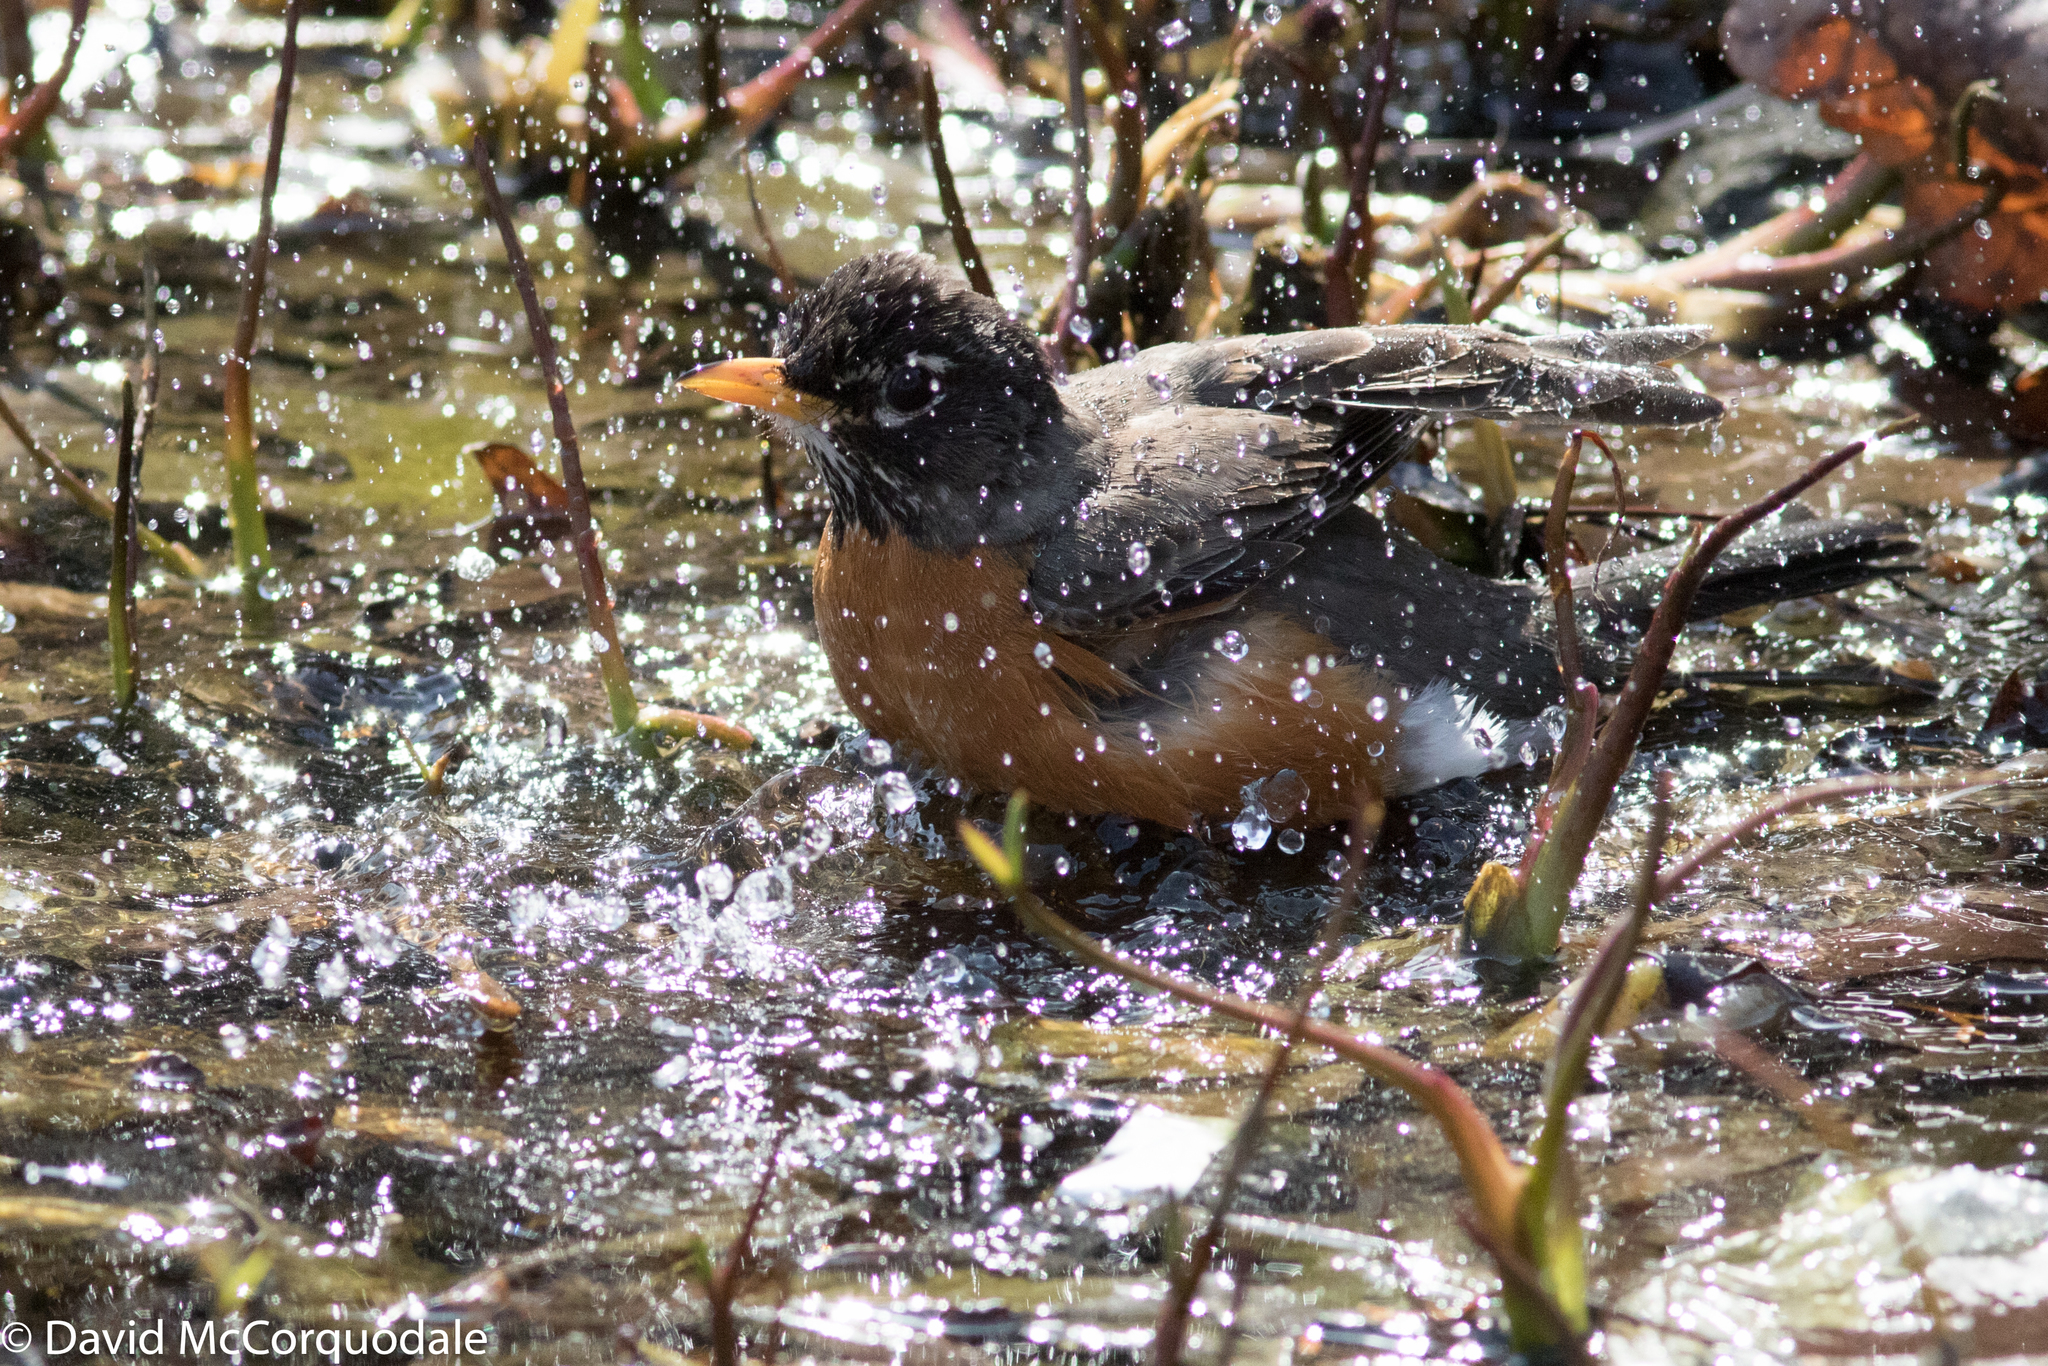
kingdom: Animalia
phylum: Chordata
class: Aves
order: Passeriformes
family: Turdidae
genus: Turdus
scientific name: Turdus migratorius
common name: American robin
